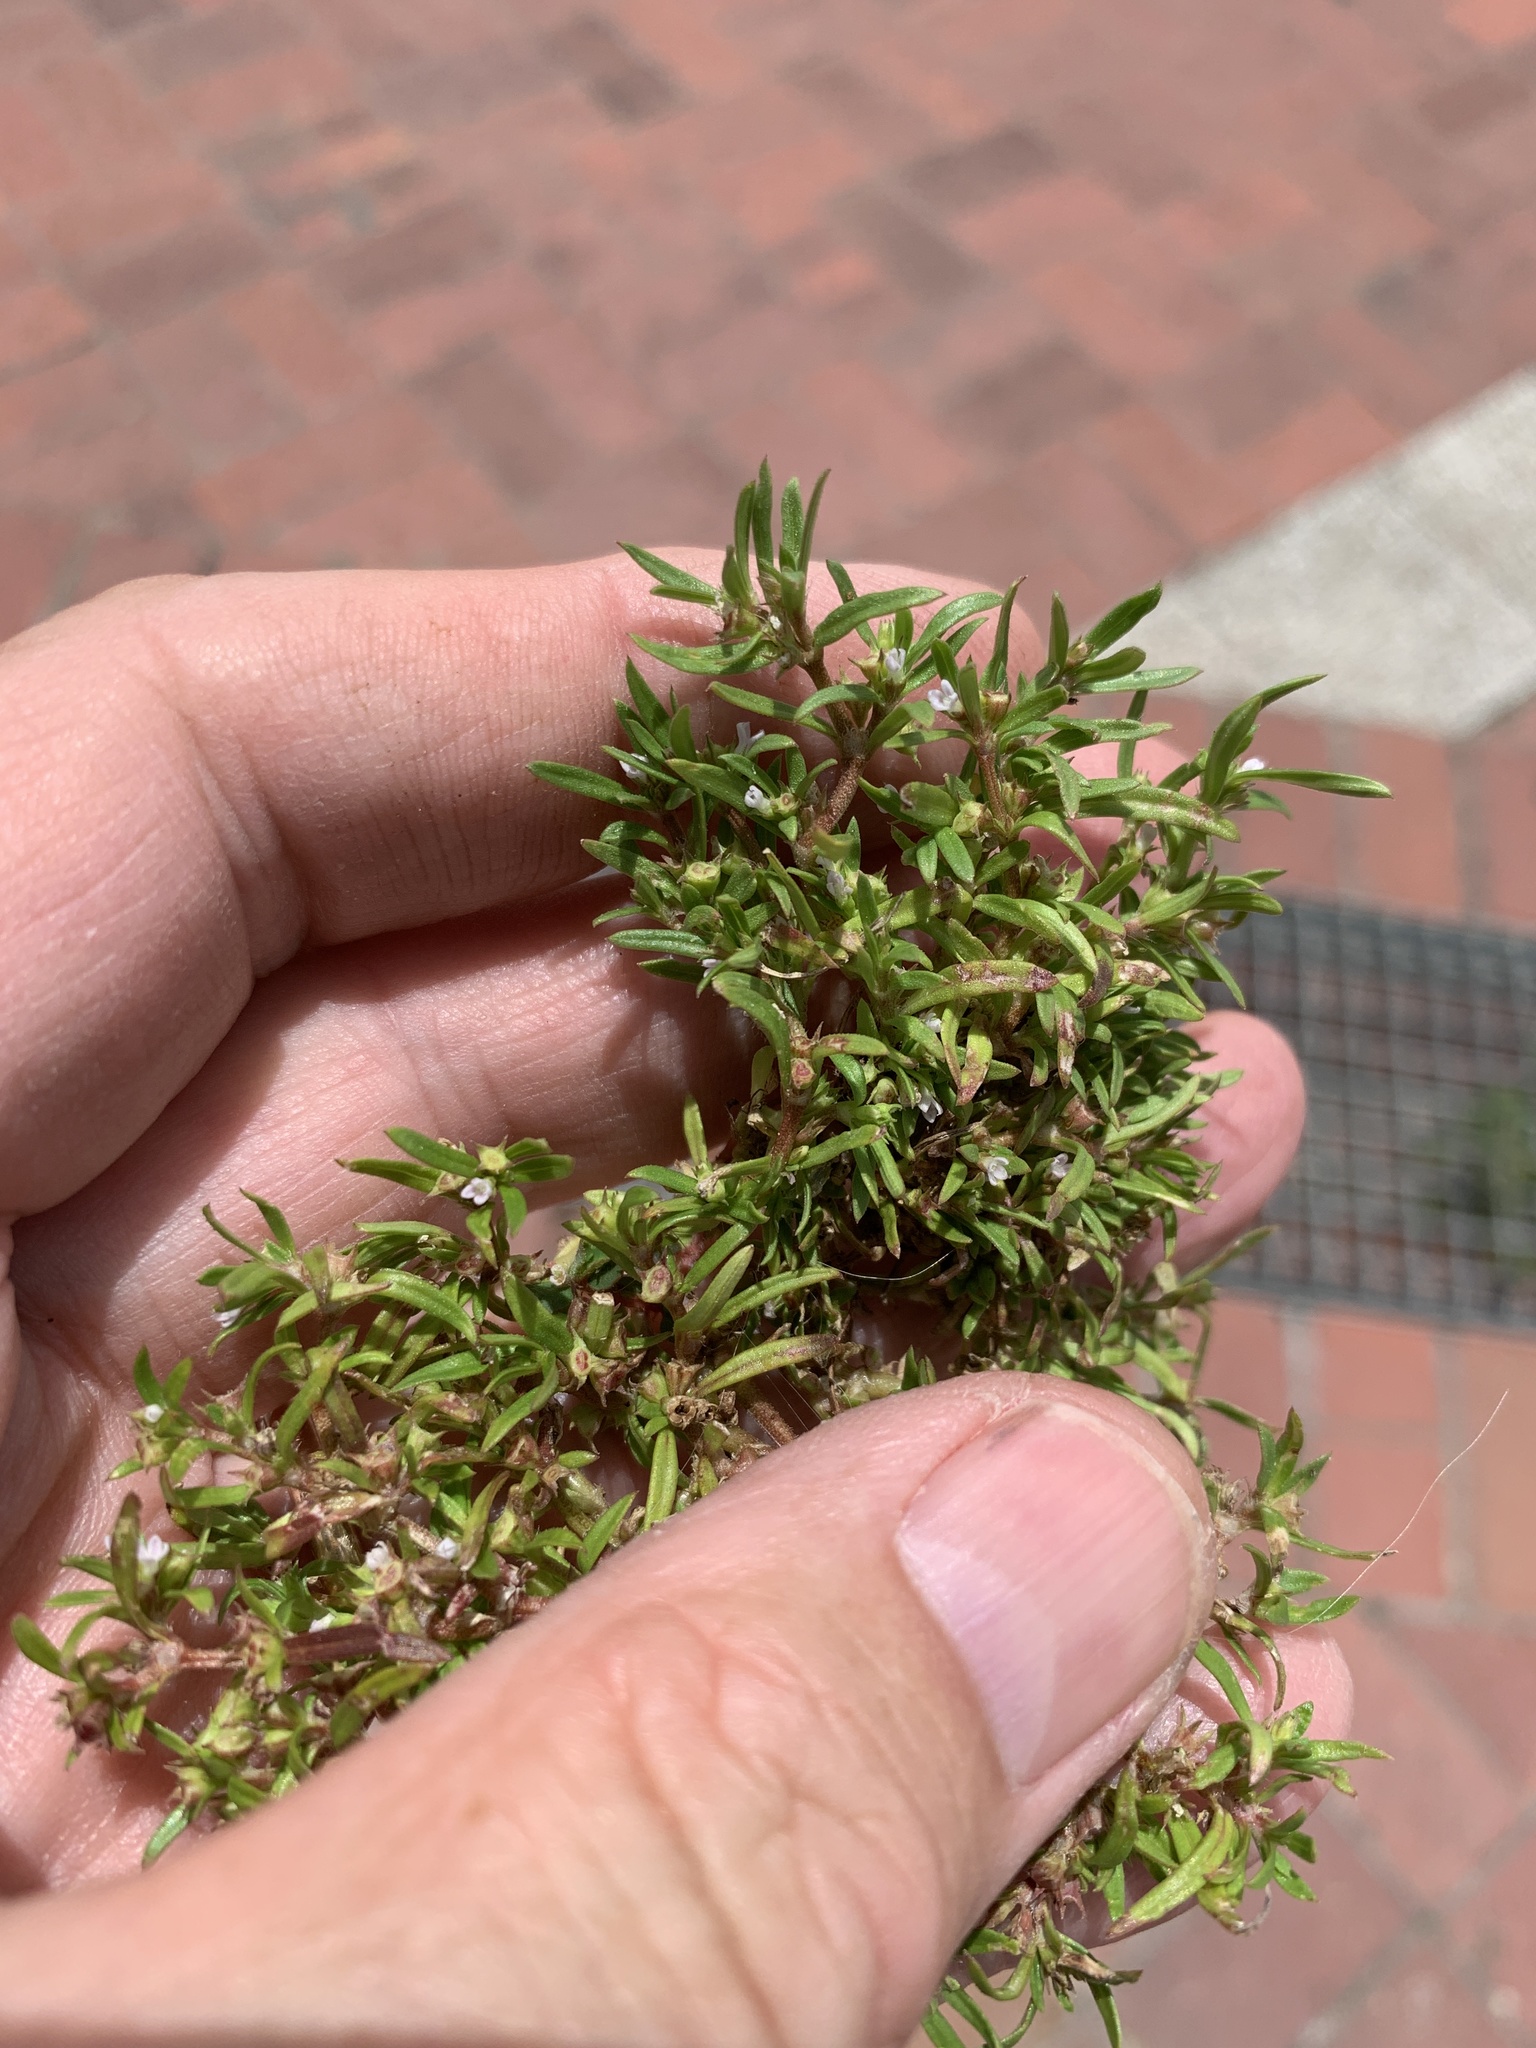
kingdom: Plantae
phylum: Tracheophyta
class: Magnoliopsida
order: Gentianales
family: Rubiaceae
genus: Oldenlandia
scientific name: Oldenlandia capensis
